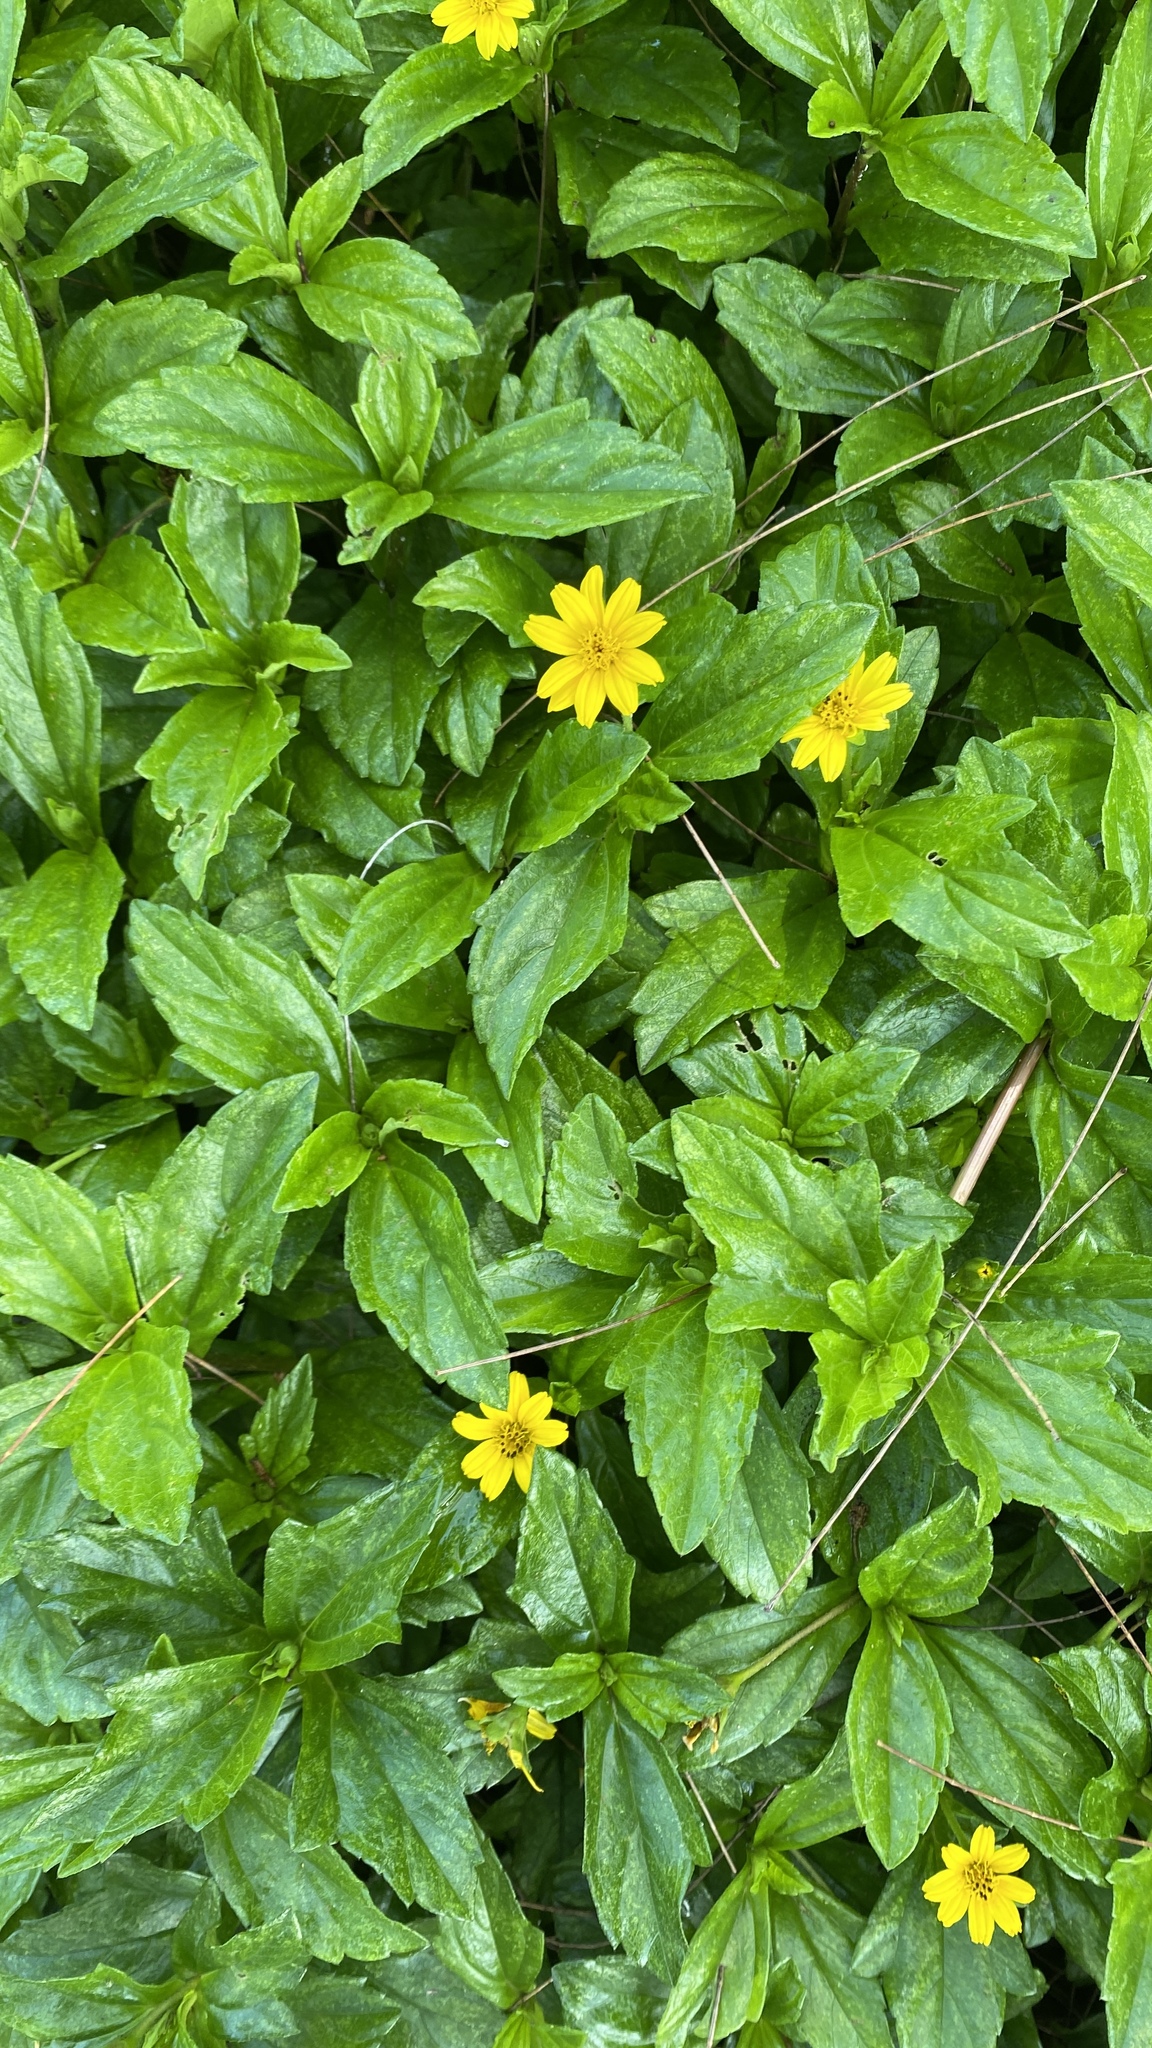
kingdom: Plantae
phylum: Tracheophyta
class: Magnoliopsida
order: Asterales
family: Asteraceae
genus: Sphagneticola
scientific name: Sphagneticola trilobata
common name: Bay biscayne creeping-oxeye
